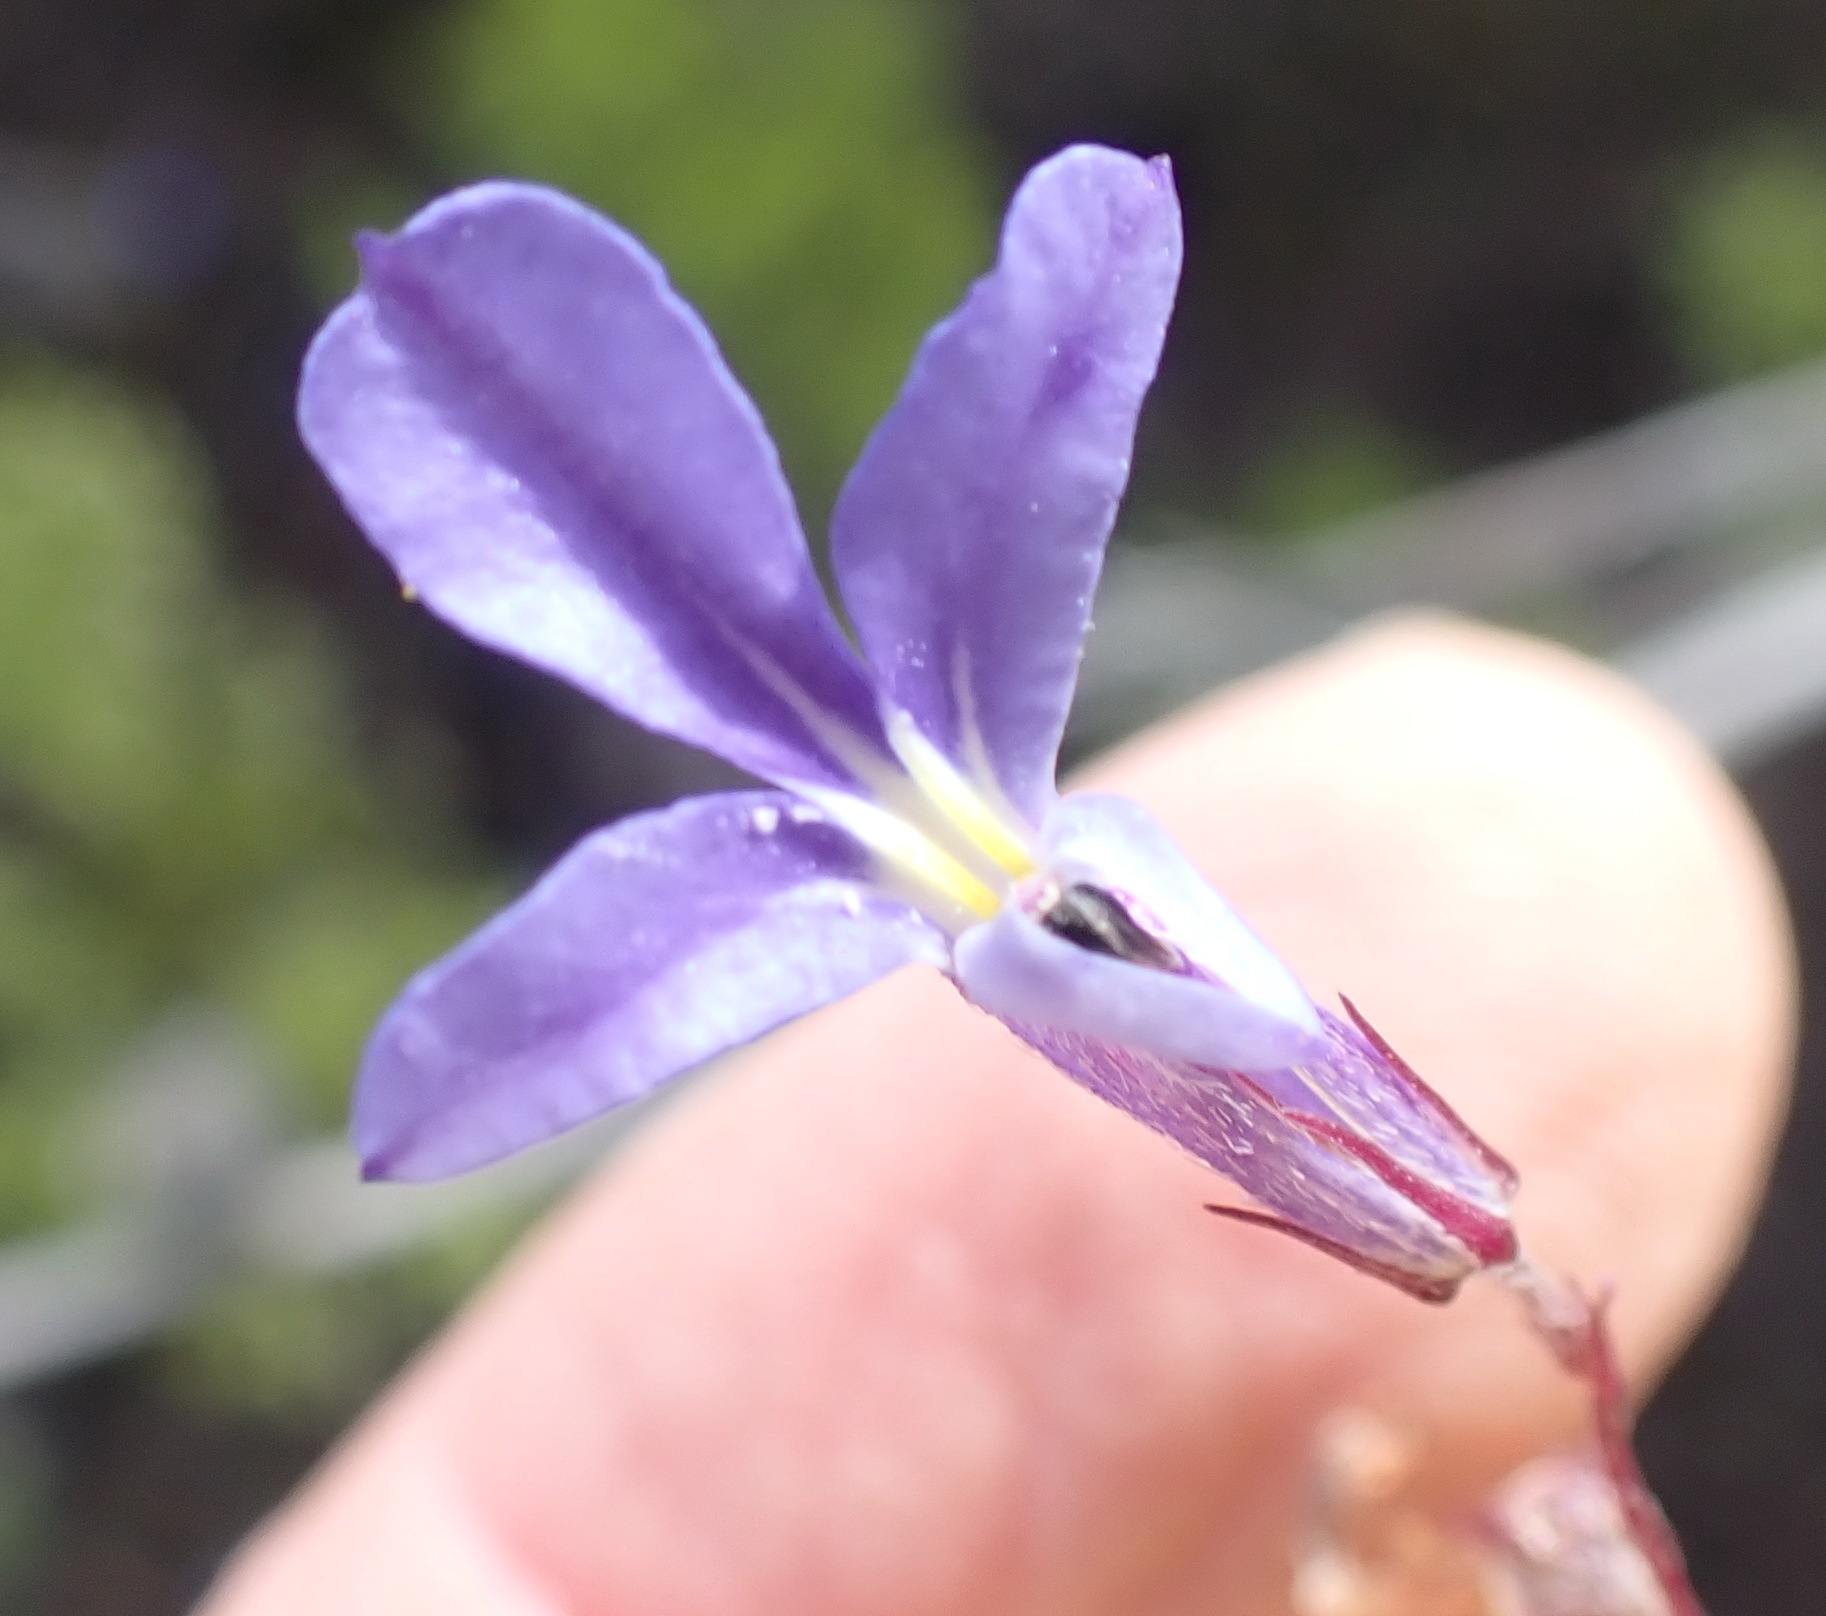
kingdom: Plantae
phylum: Tracheophyta
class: Magnoliopsida
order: Asterales
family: Campanulaceae
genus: Lobelia
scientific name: Lobelia neglecta
